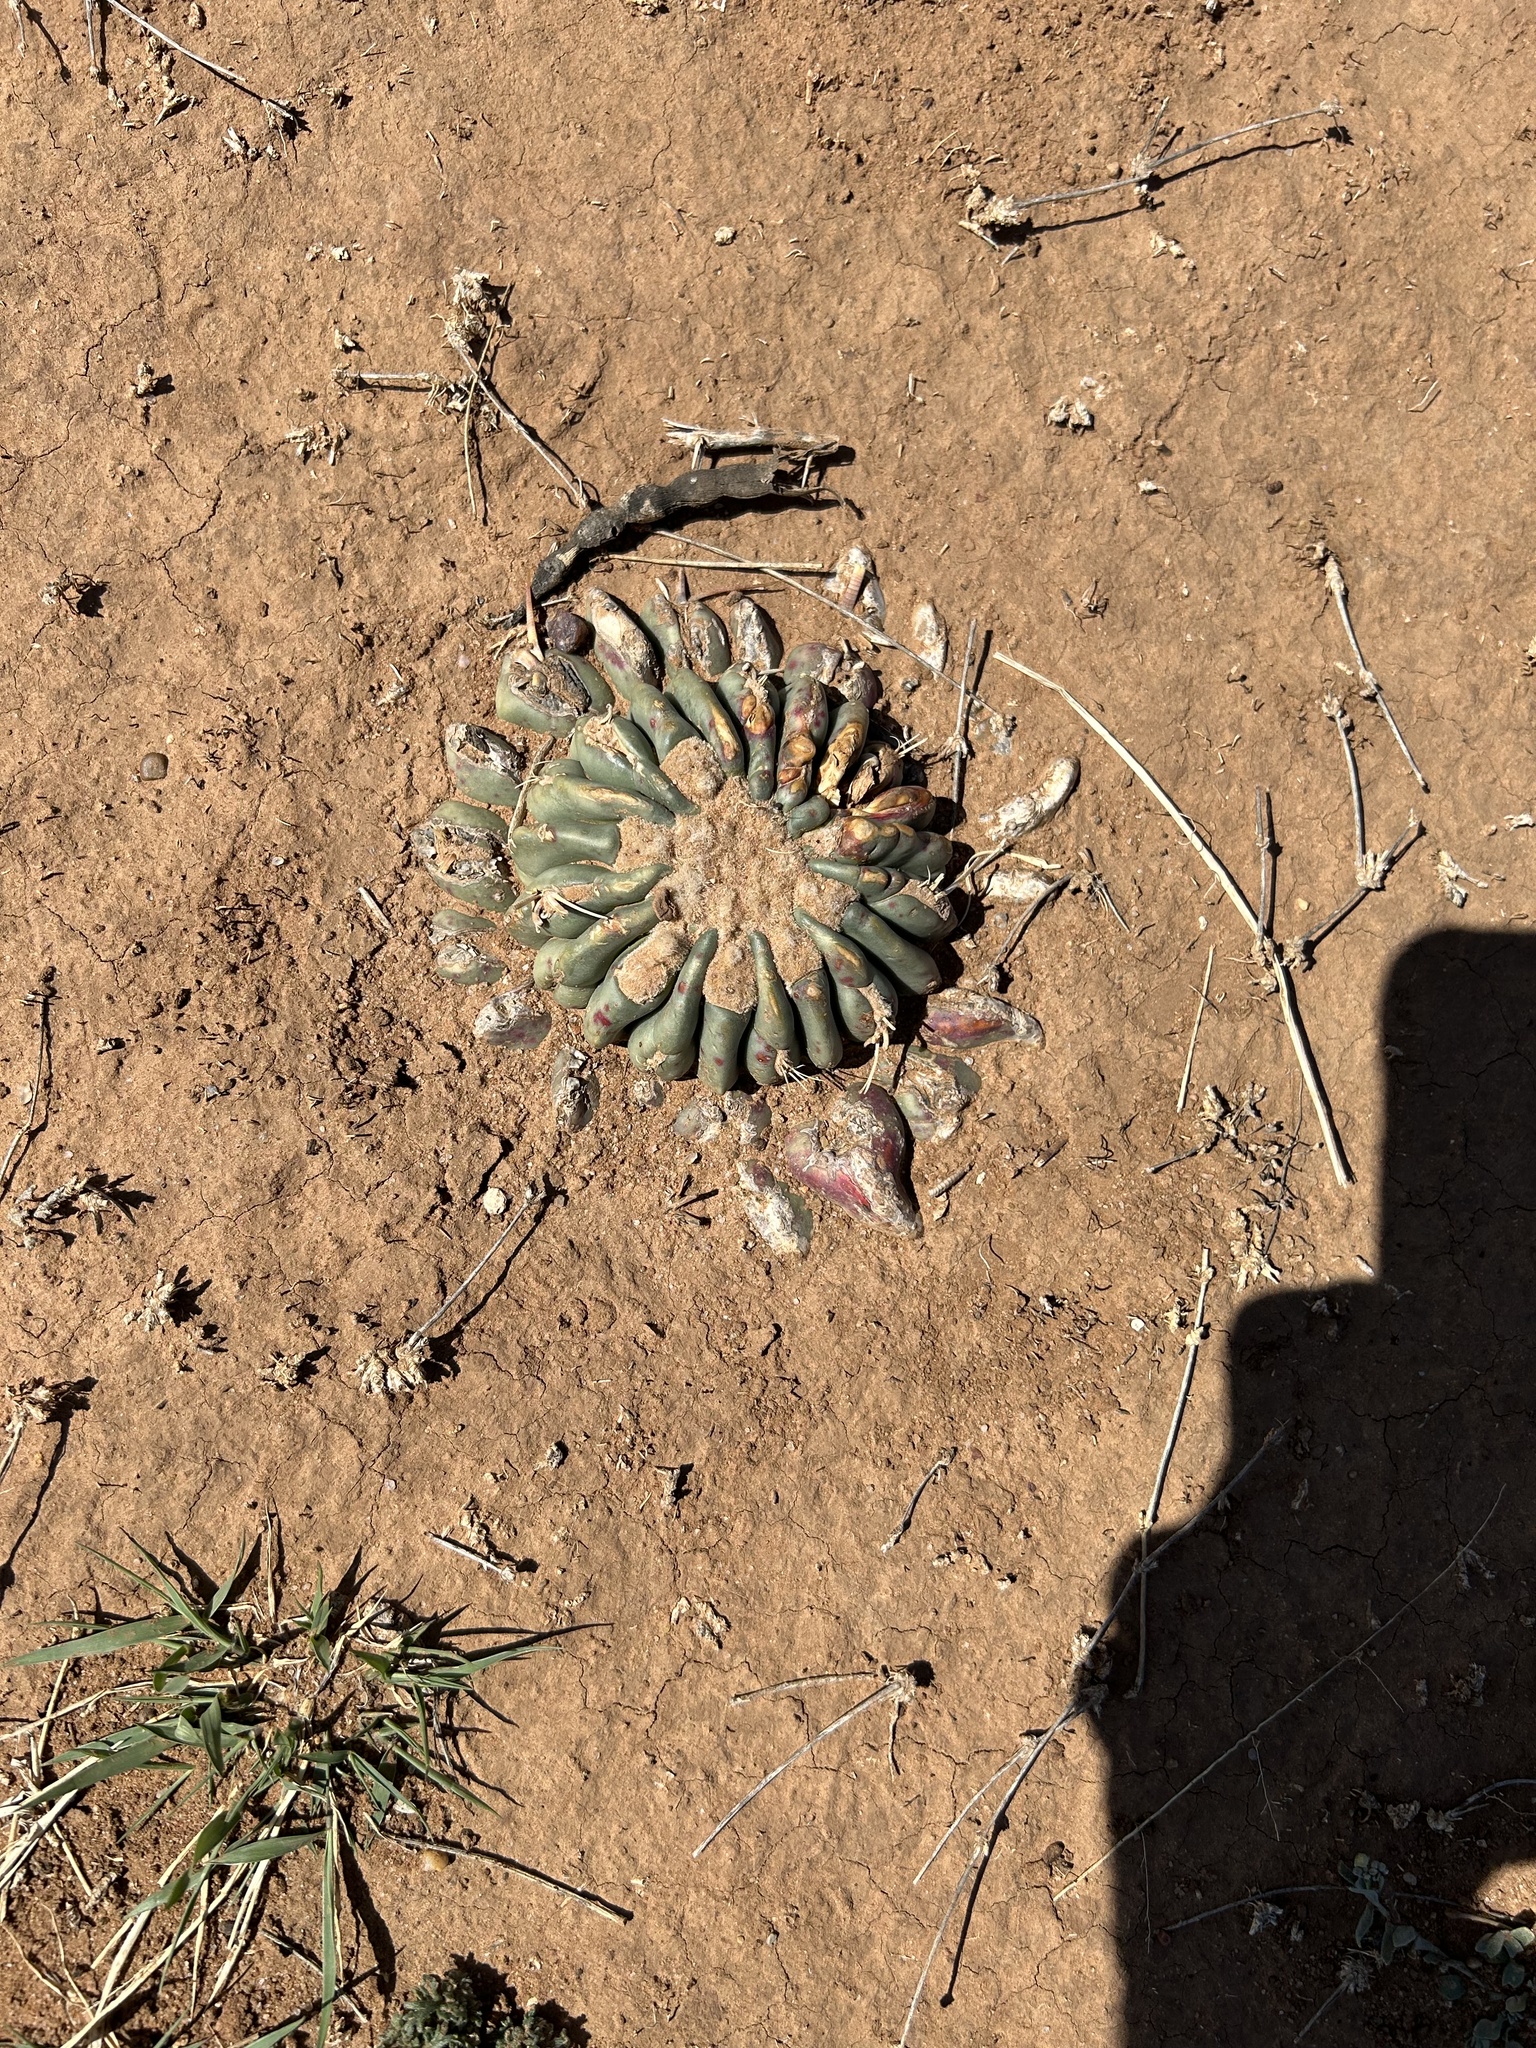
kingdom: Plantae
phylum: Tracheophyta
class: Magnoliopsida
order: Caryophyllales
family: Cactaceae
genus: Echinocactus
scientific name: Echinocactus texensis
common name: Devil's pincushion
